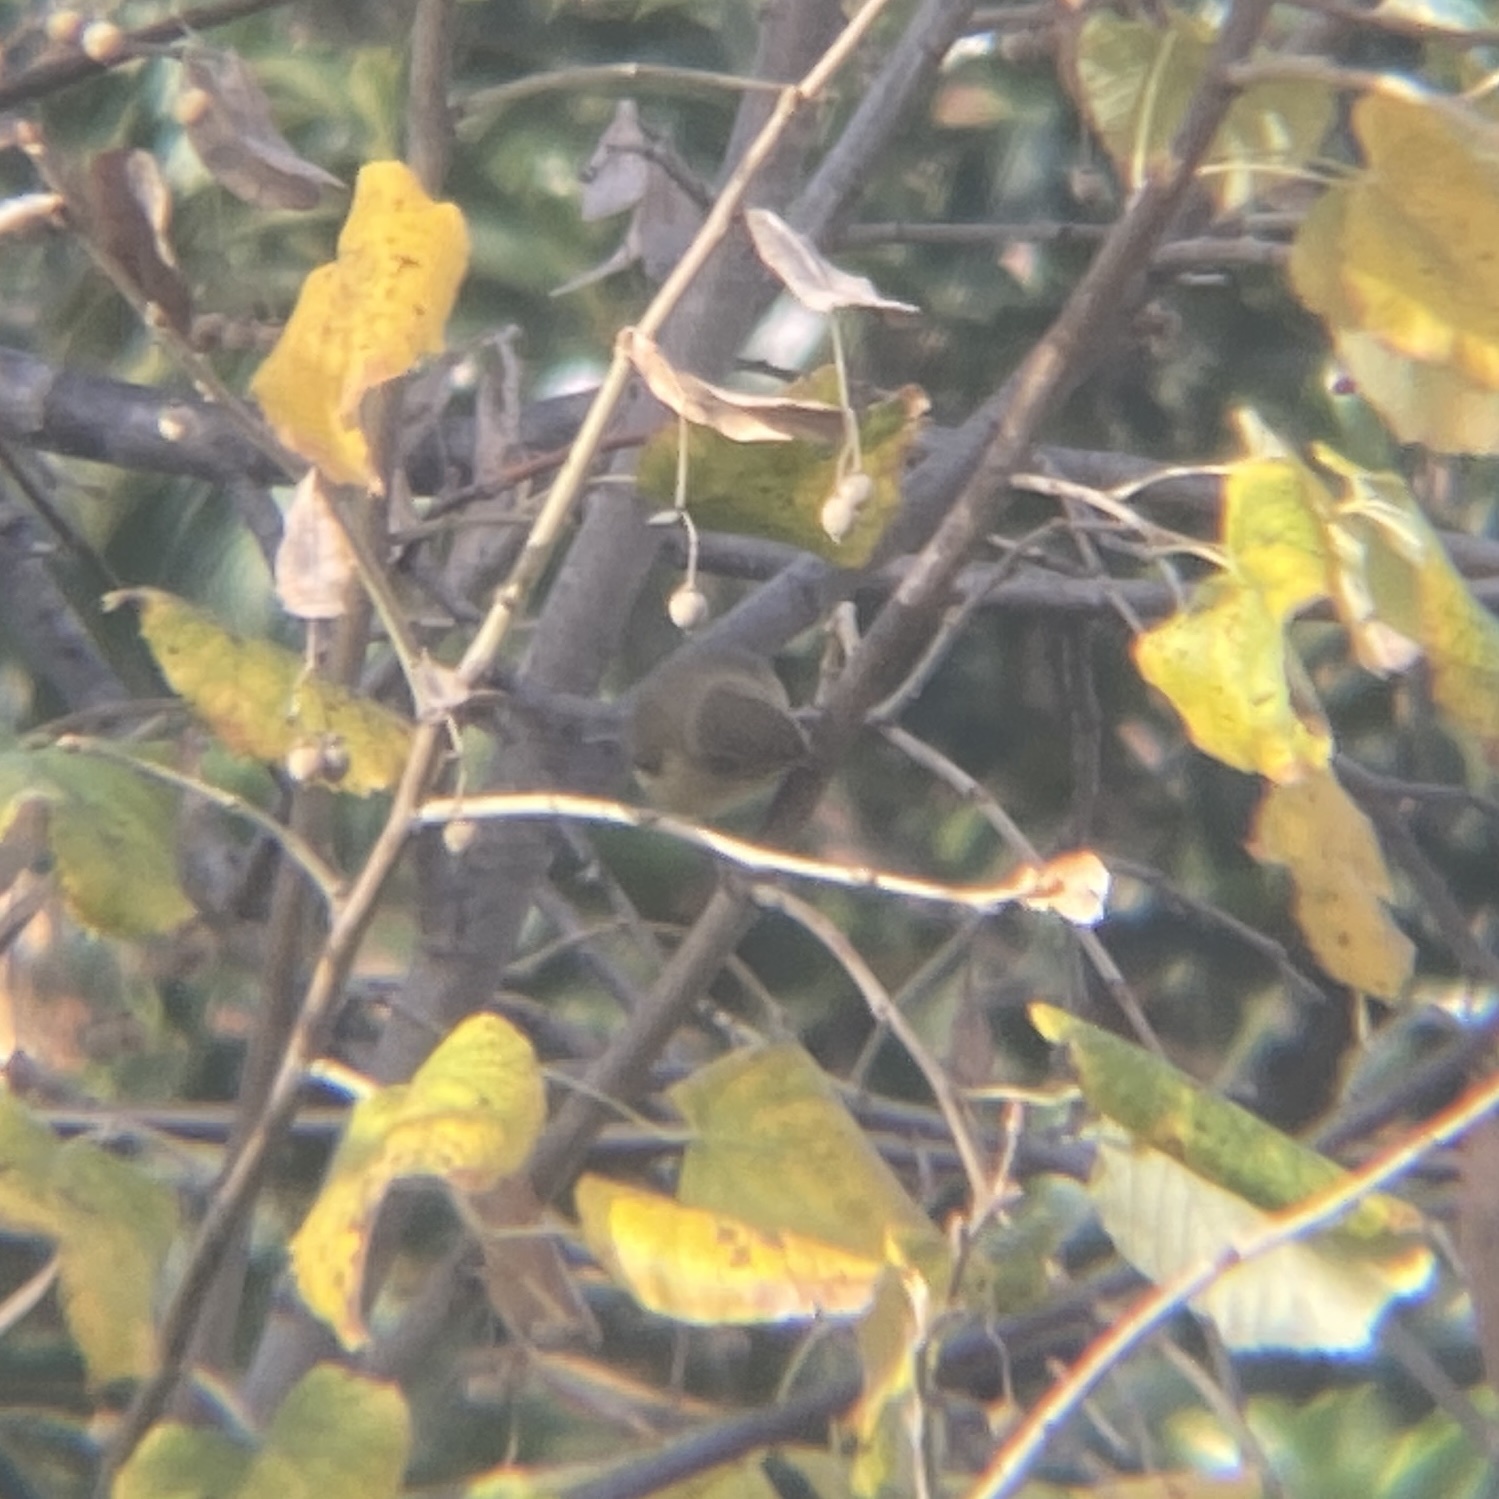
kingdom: Animalia
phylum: Chordata
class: Aves
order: Passeriformes
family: Phylloscopidae
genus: Phylloscopus
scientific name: Phylloscopus collybita
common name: Common chiffchaff
